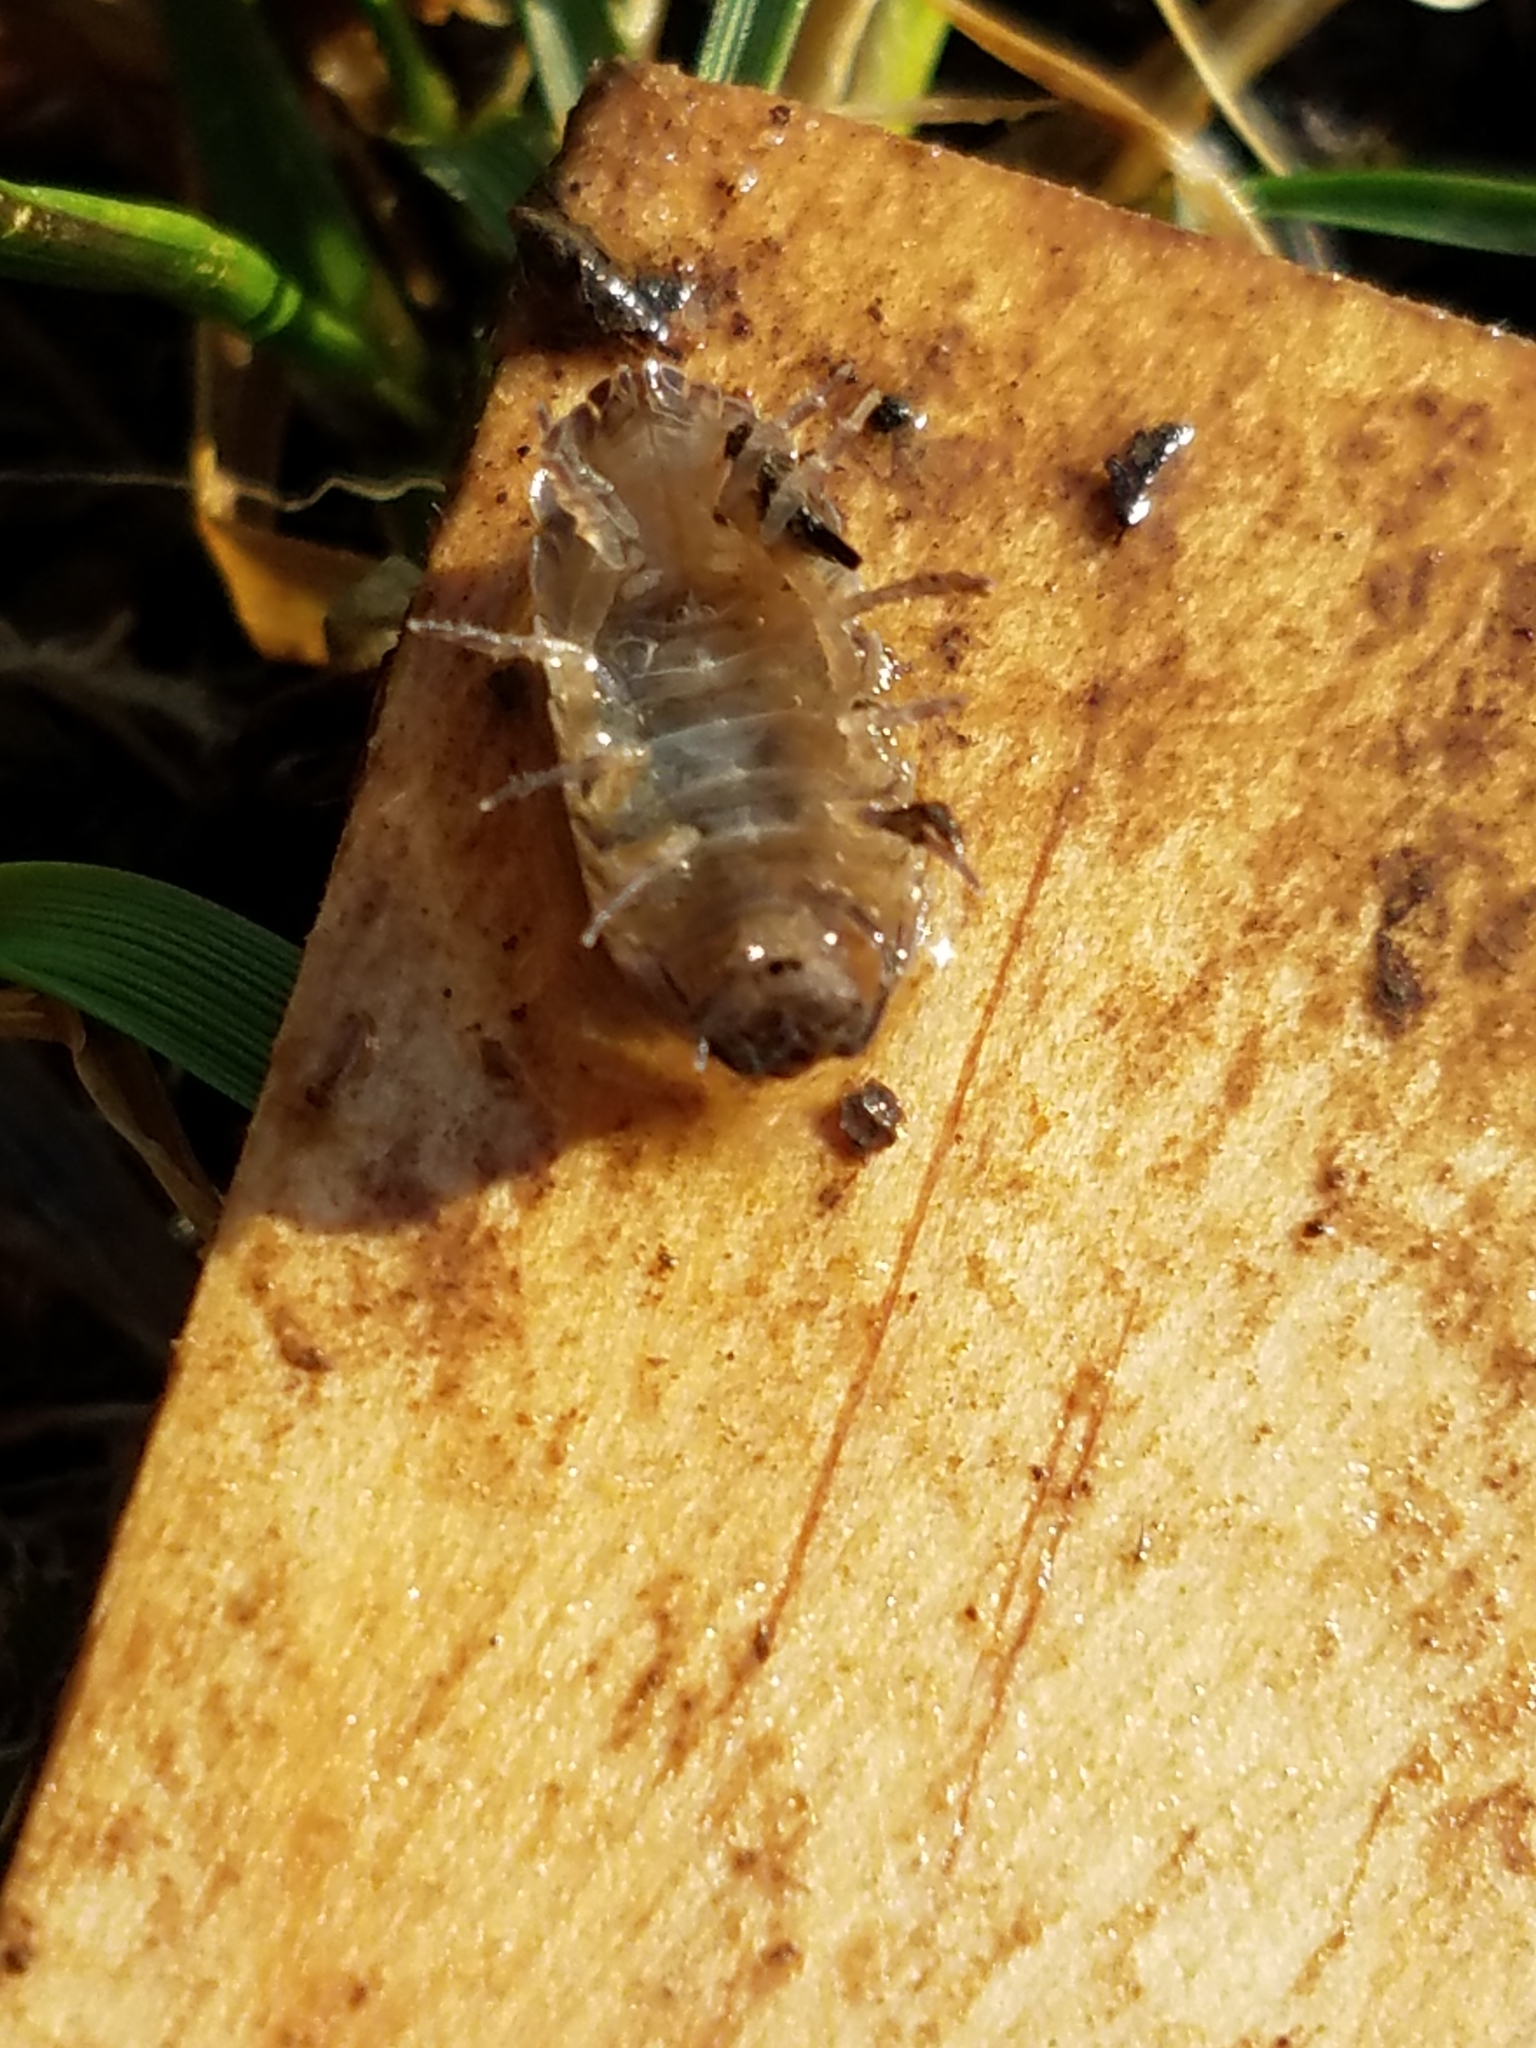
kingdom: Animalia
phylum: Arthropoda
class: Malacostraca
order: Isopoda
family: Armadillidiidae
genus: Armadillidium
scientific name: Armadillidium vulgare
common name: Common pill woodlouse
